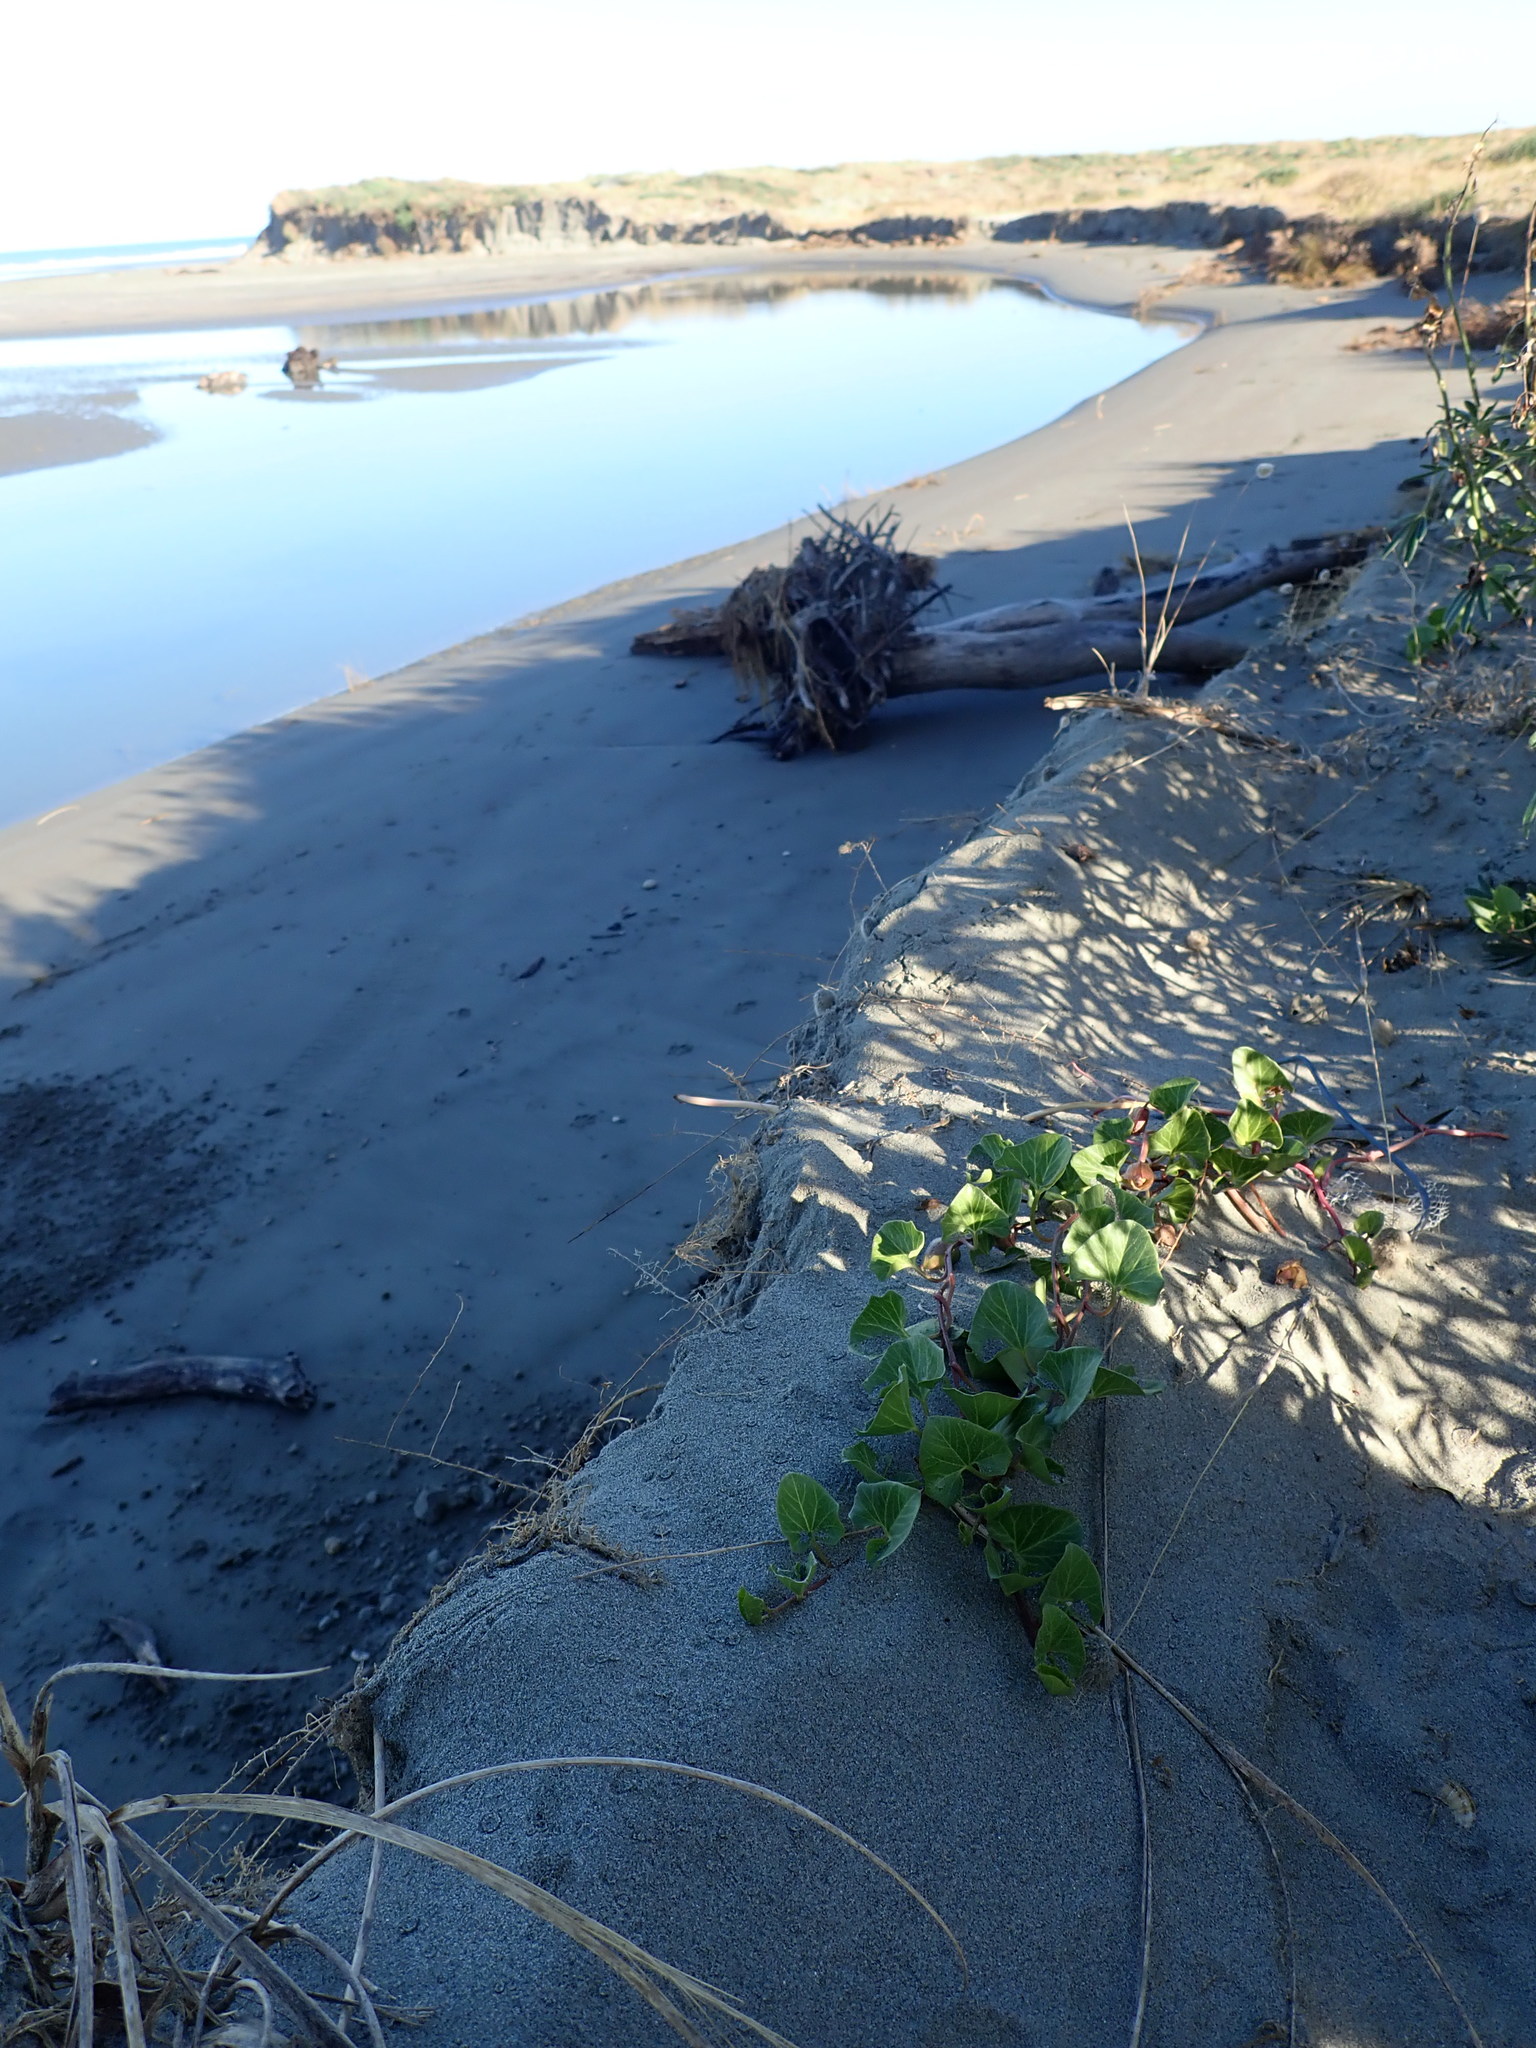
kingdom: Plantae
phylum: Tracheophyta
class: Magnoliopsida
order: Solanales
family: Convolvulaceae
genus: Calystegia
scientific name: Calystegia soldanella
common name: Sea bindweed
